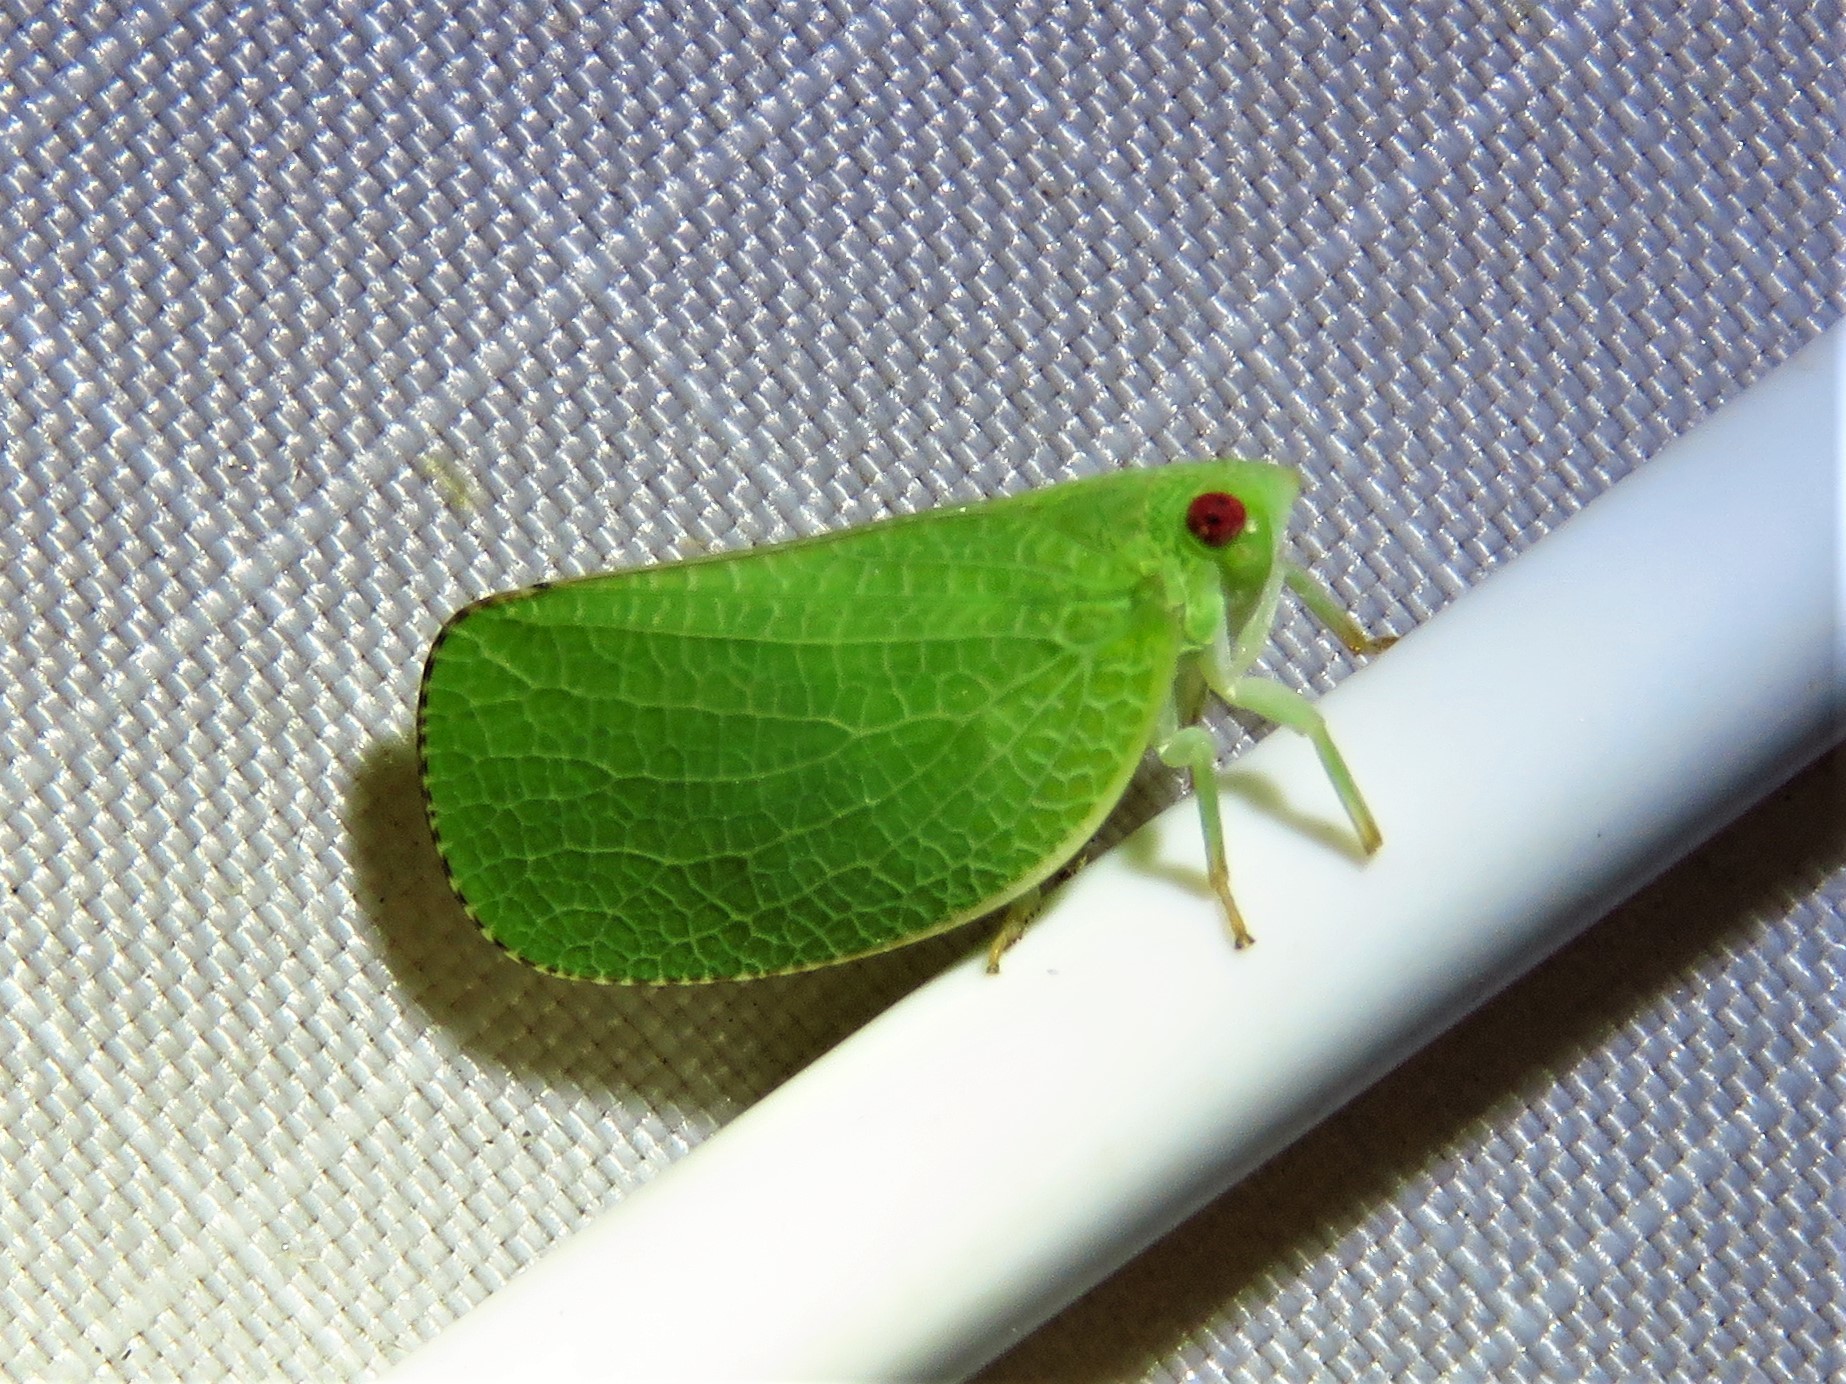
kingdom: Animalia
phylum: Arthropoda
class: Insecta
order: Hemiptera
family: Acanaloniidae
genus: Acanalonia
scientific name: Acanalonia conica
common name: Green cone-headed planthopper
